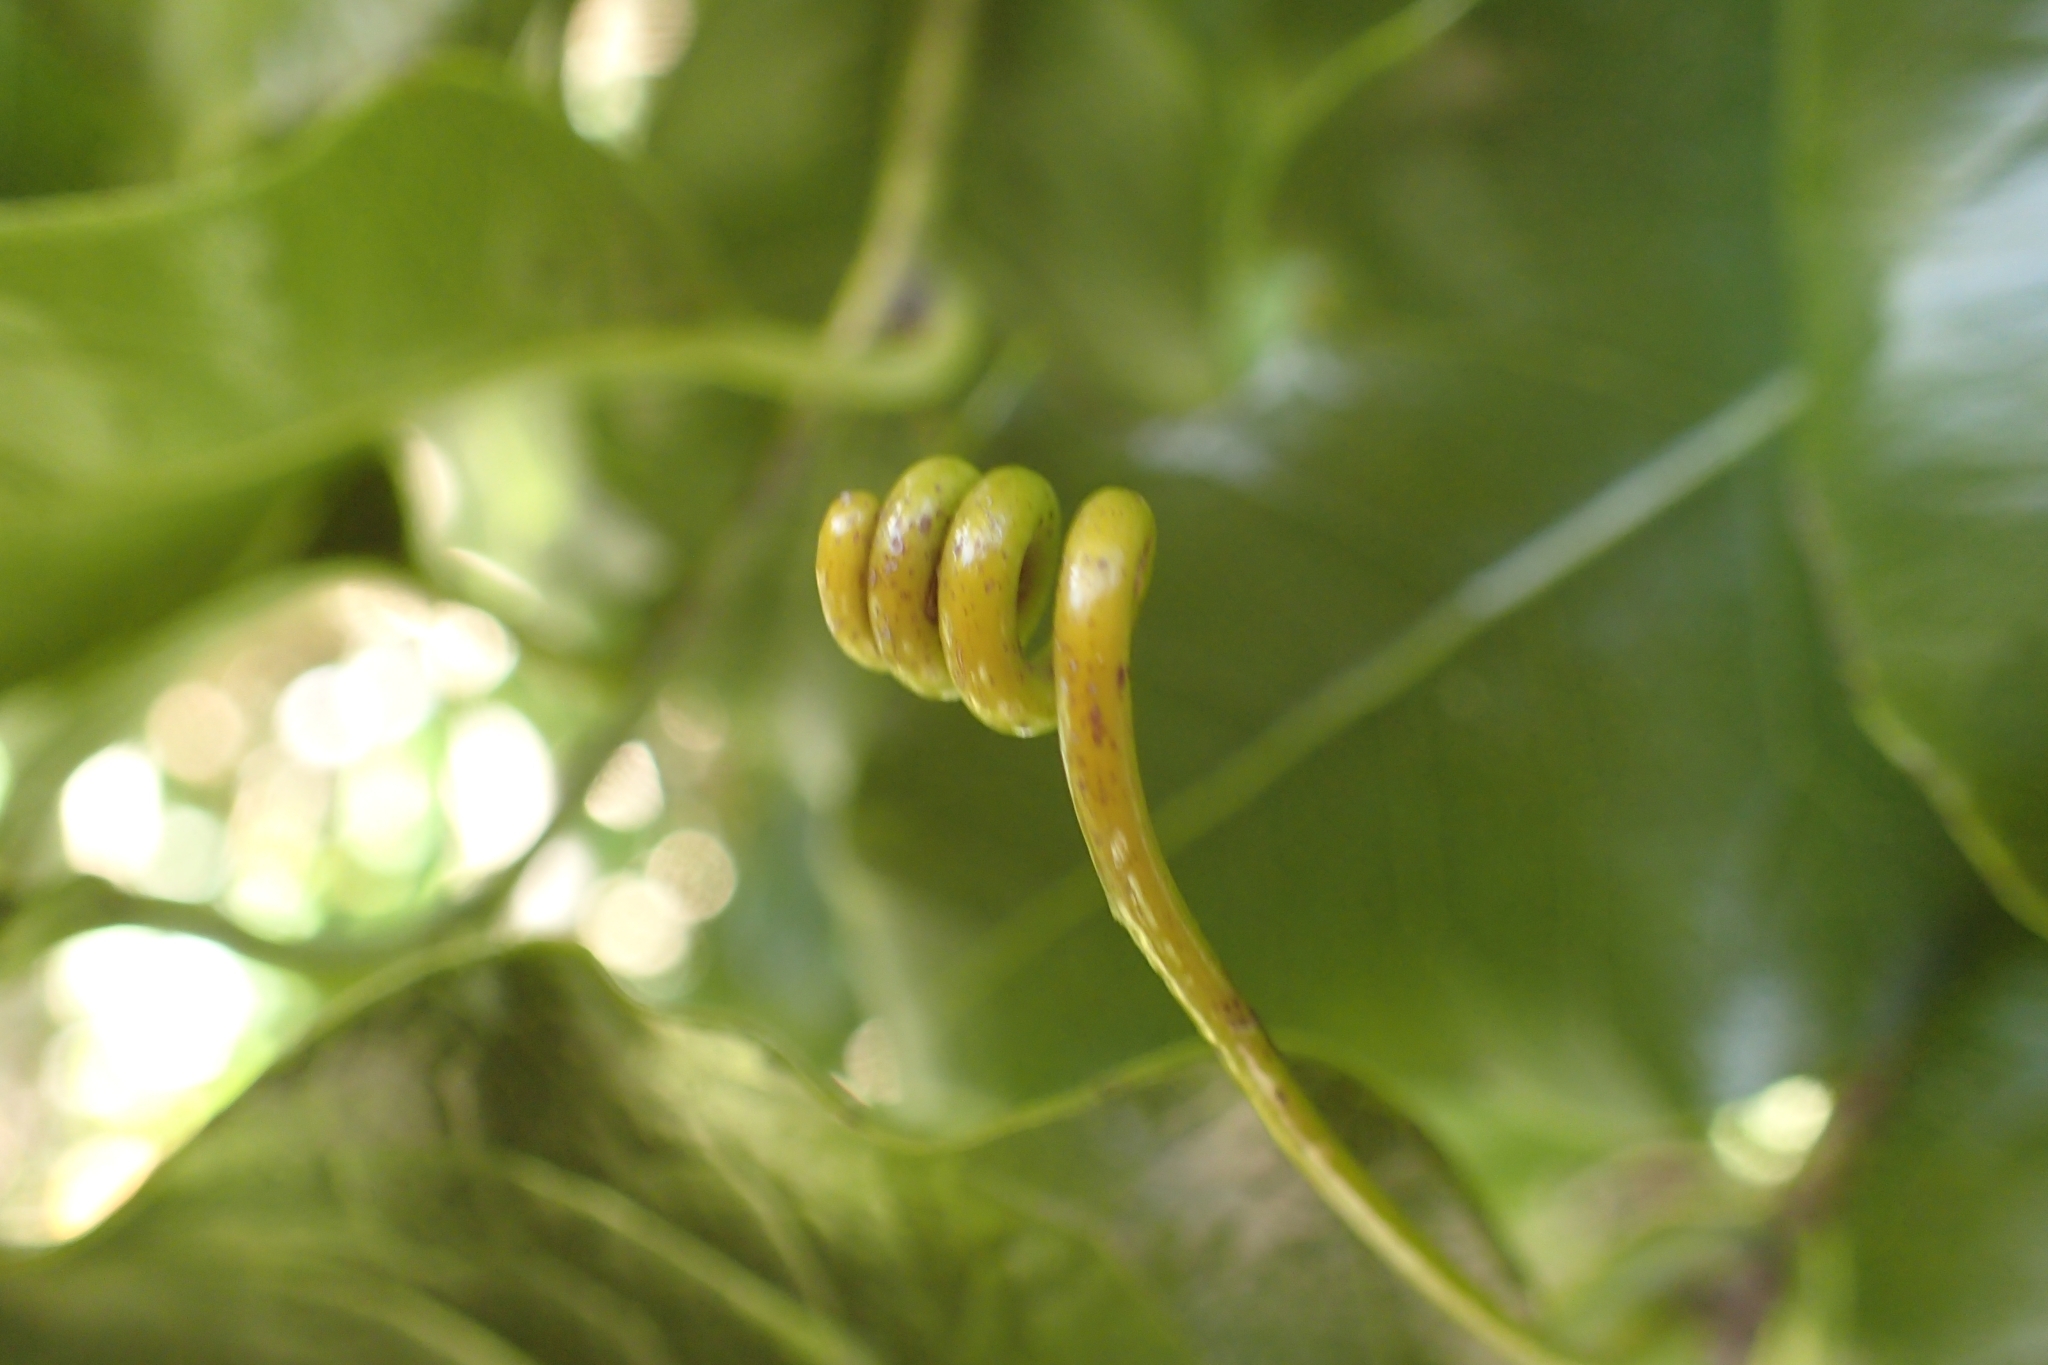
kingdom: Plantae
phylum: Tracheophyta
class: Magnoliopsida
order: Malpighiales
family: Passifloraceae
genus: Passiflora
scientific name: Passiflora tetrandra
